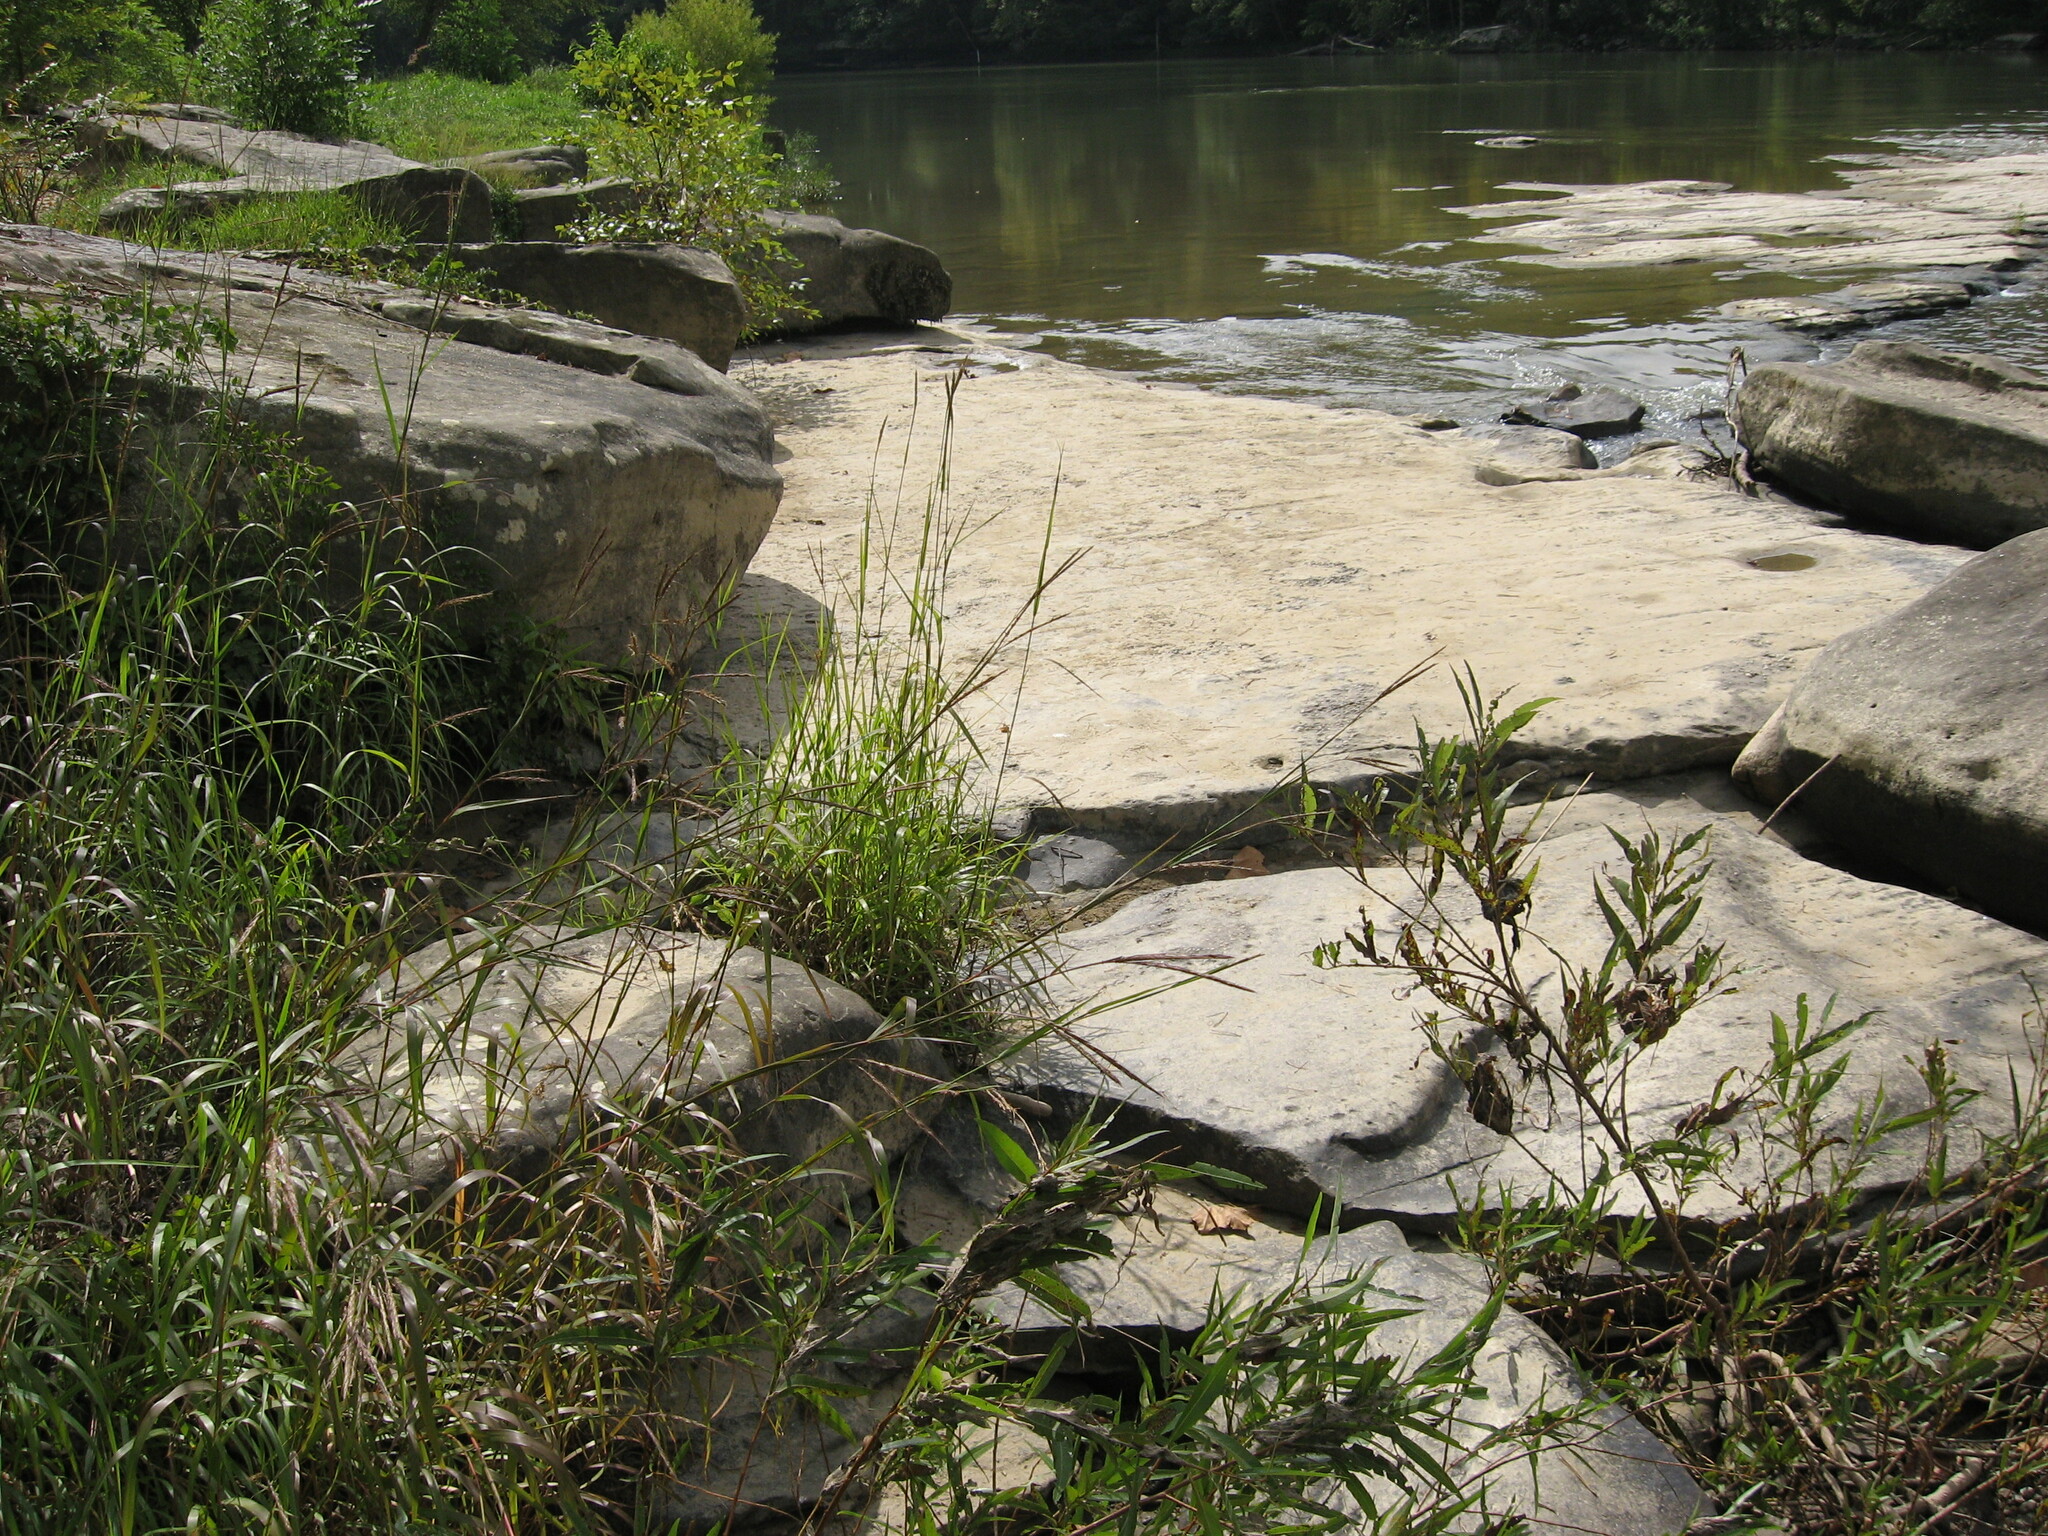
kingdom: Plantae
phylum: Tracheophyta
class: Liliopsida
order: Poales
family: Poaceae
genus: Andropogon
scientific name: Andropogon gerardi
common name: Big bluestem
